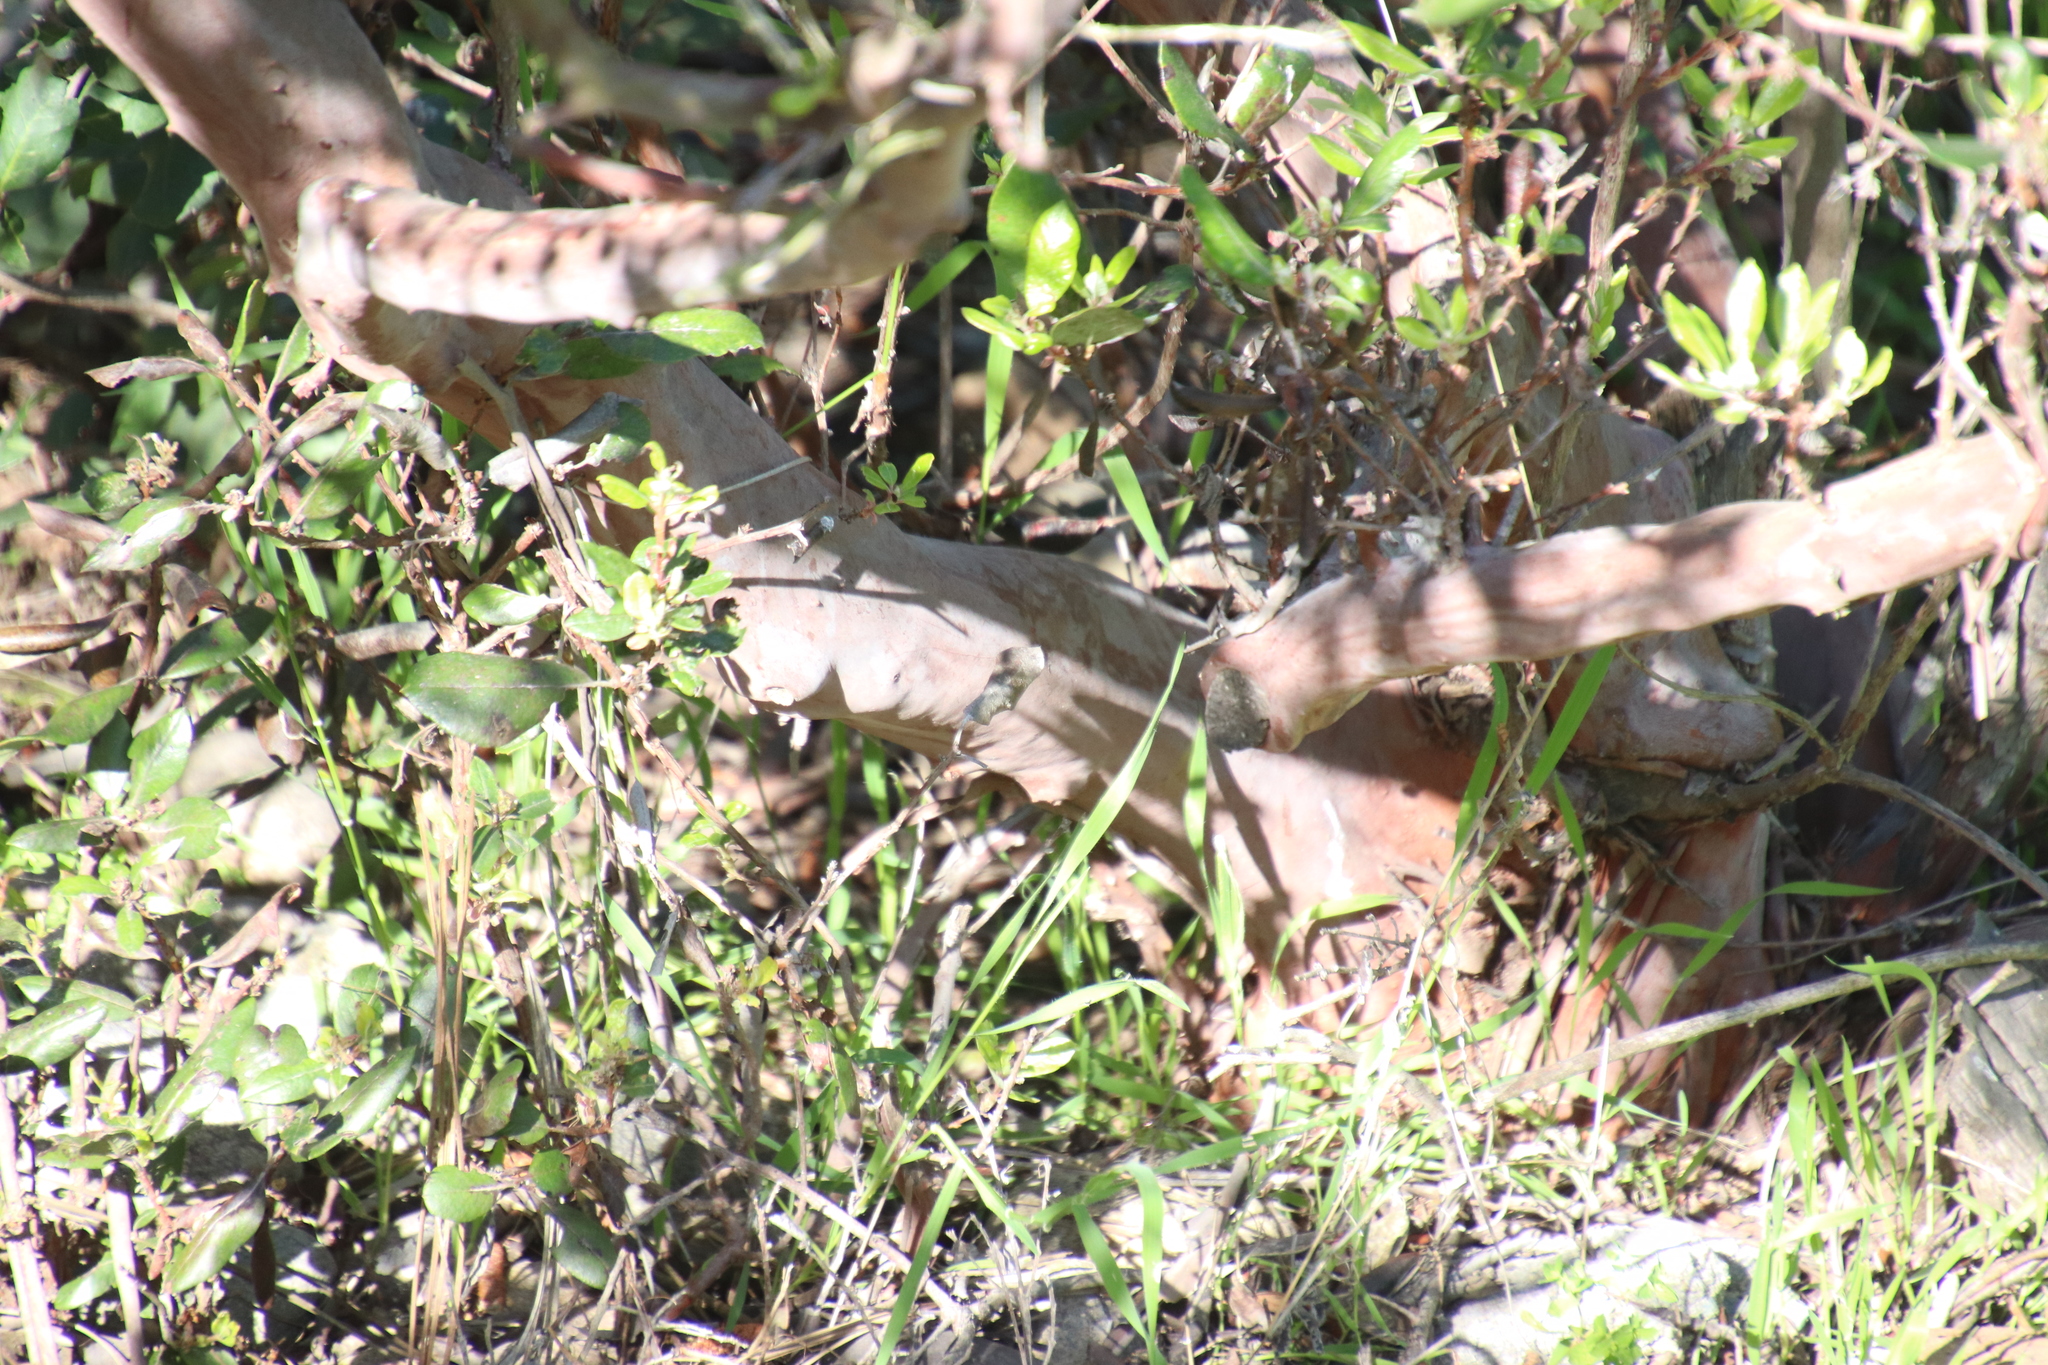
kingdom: Plantae
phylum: Tracheophyta
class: Magnoliopsida
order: Ericales
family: Ericaceae
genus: Arctostaphylos
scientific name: Arctostaphylos bicolor
